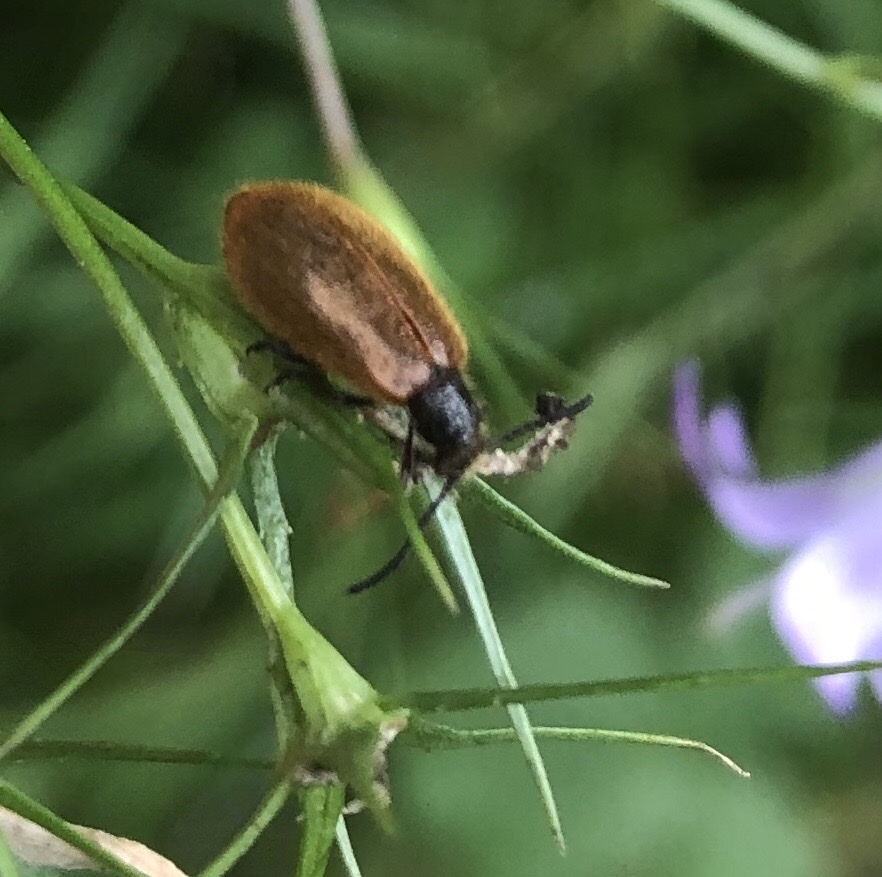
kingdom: Animalia
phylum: Arthropoda
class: Insecta
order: Coleoptera
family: Tenebrionidae
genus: Lagria
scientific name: Lagria hirta
